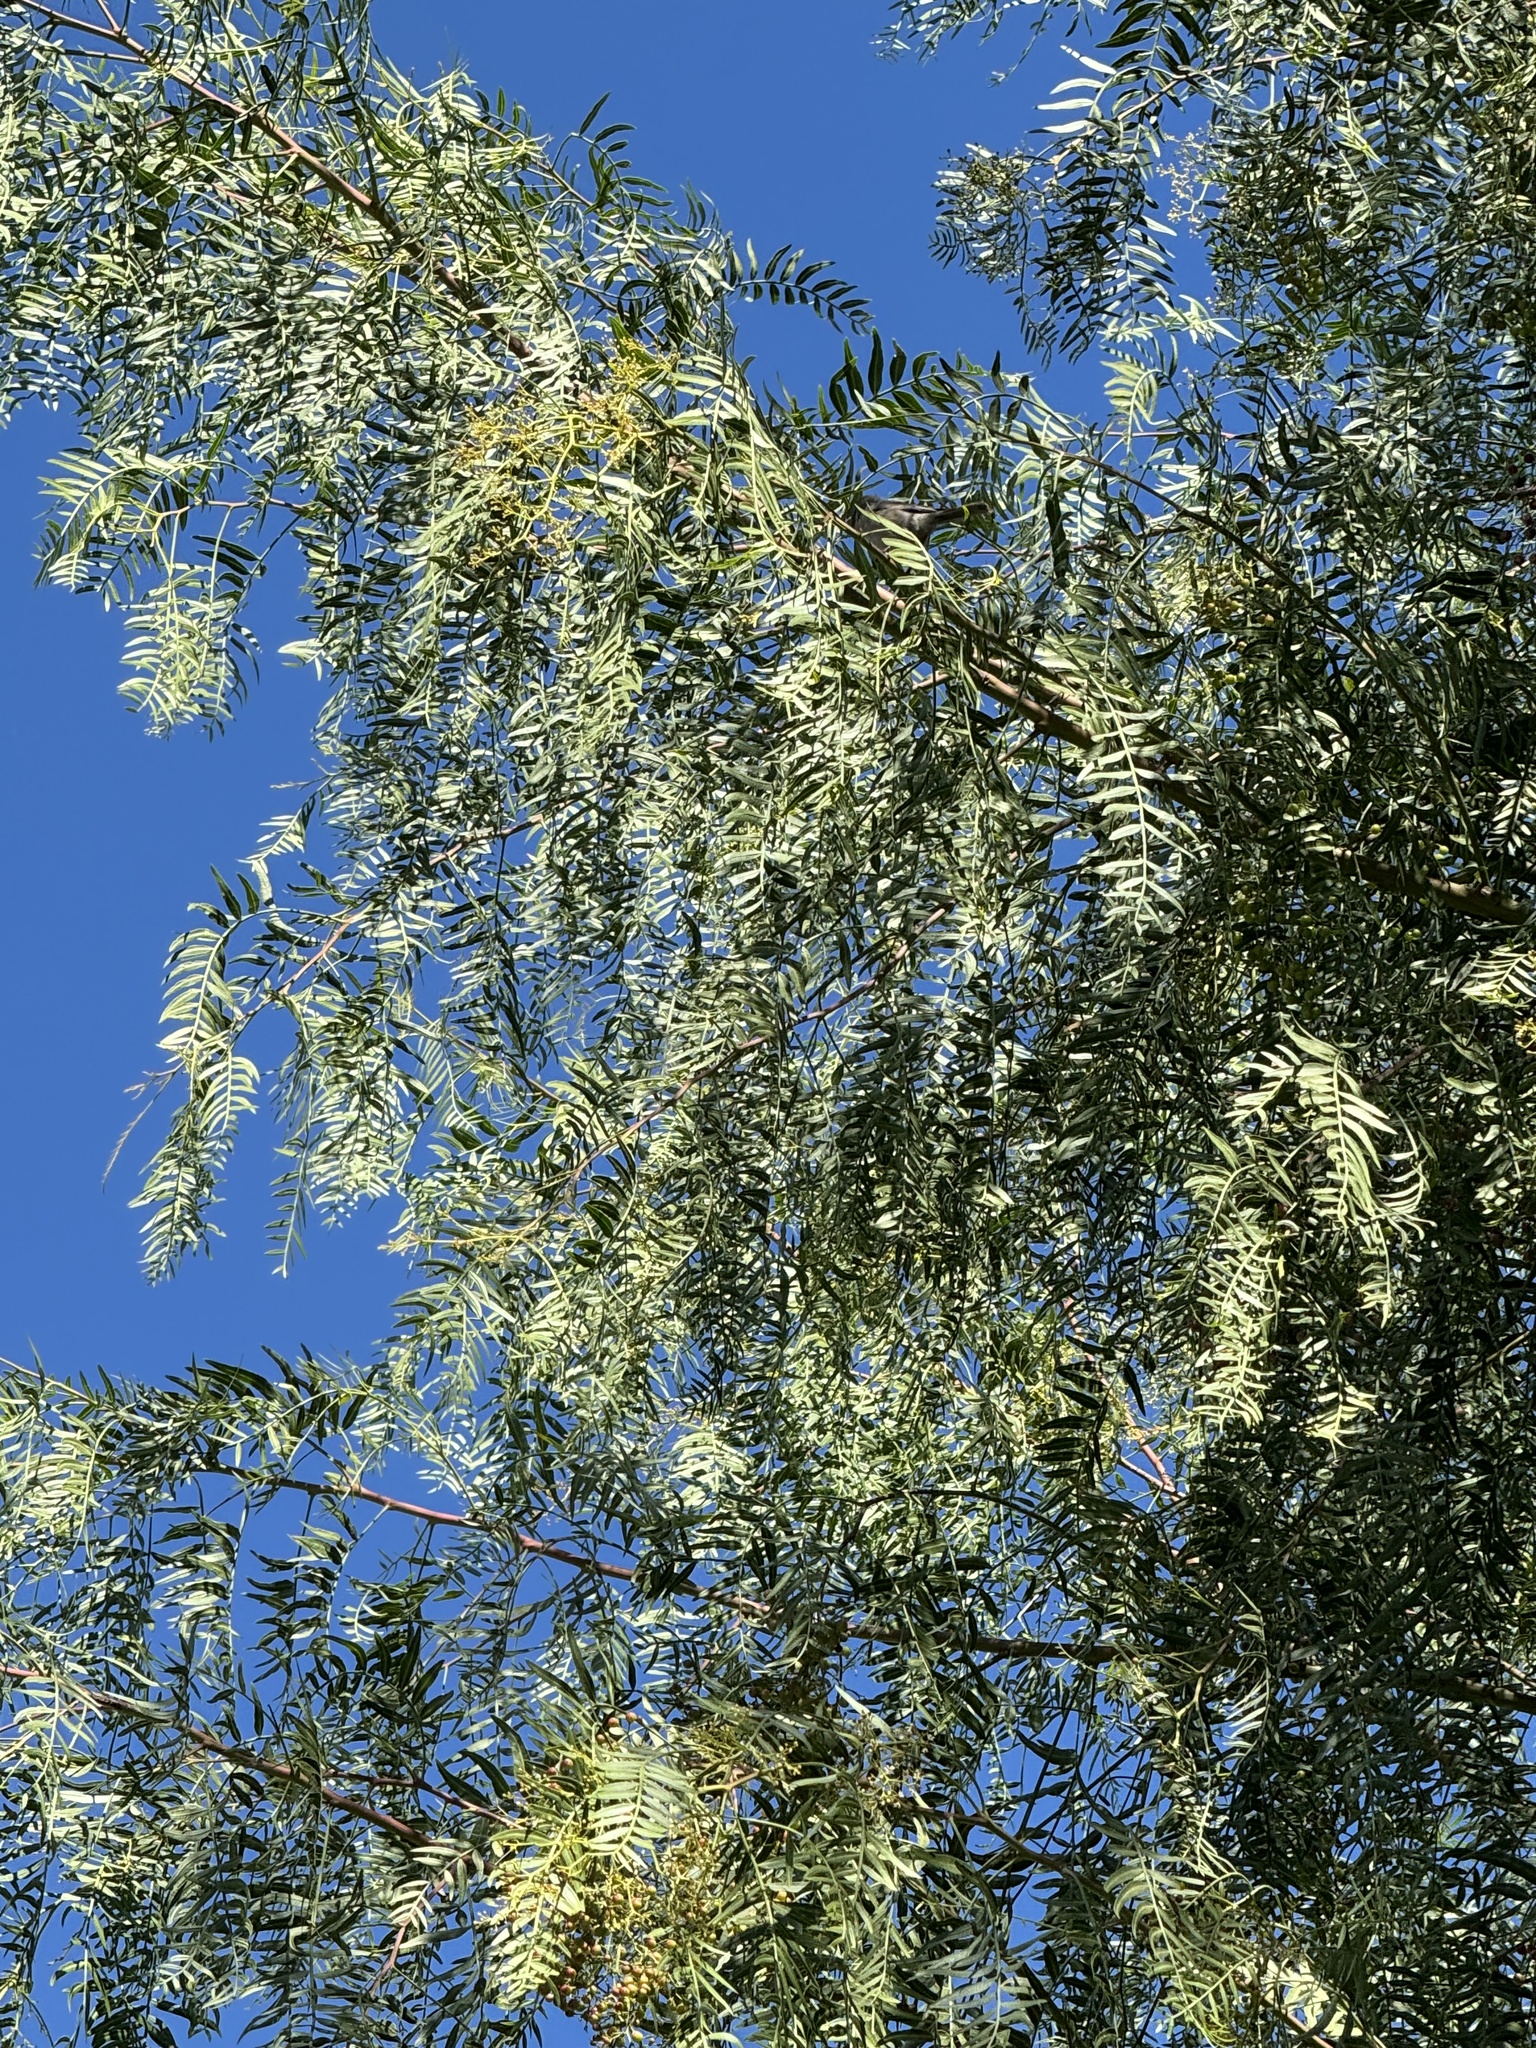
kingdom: Animalia
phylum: Chordata
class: Aves
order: Passeriformes
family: Aegithalidae
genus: Psaltriparus
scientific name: Psaltriparus minimus
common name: American bushtit
